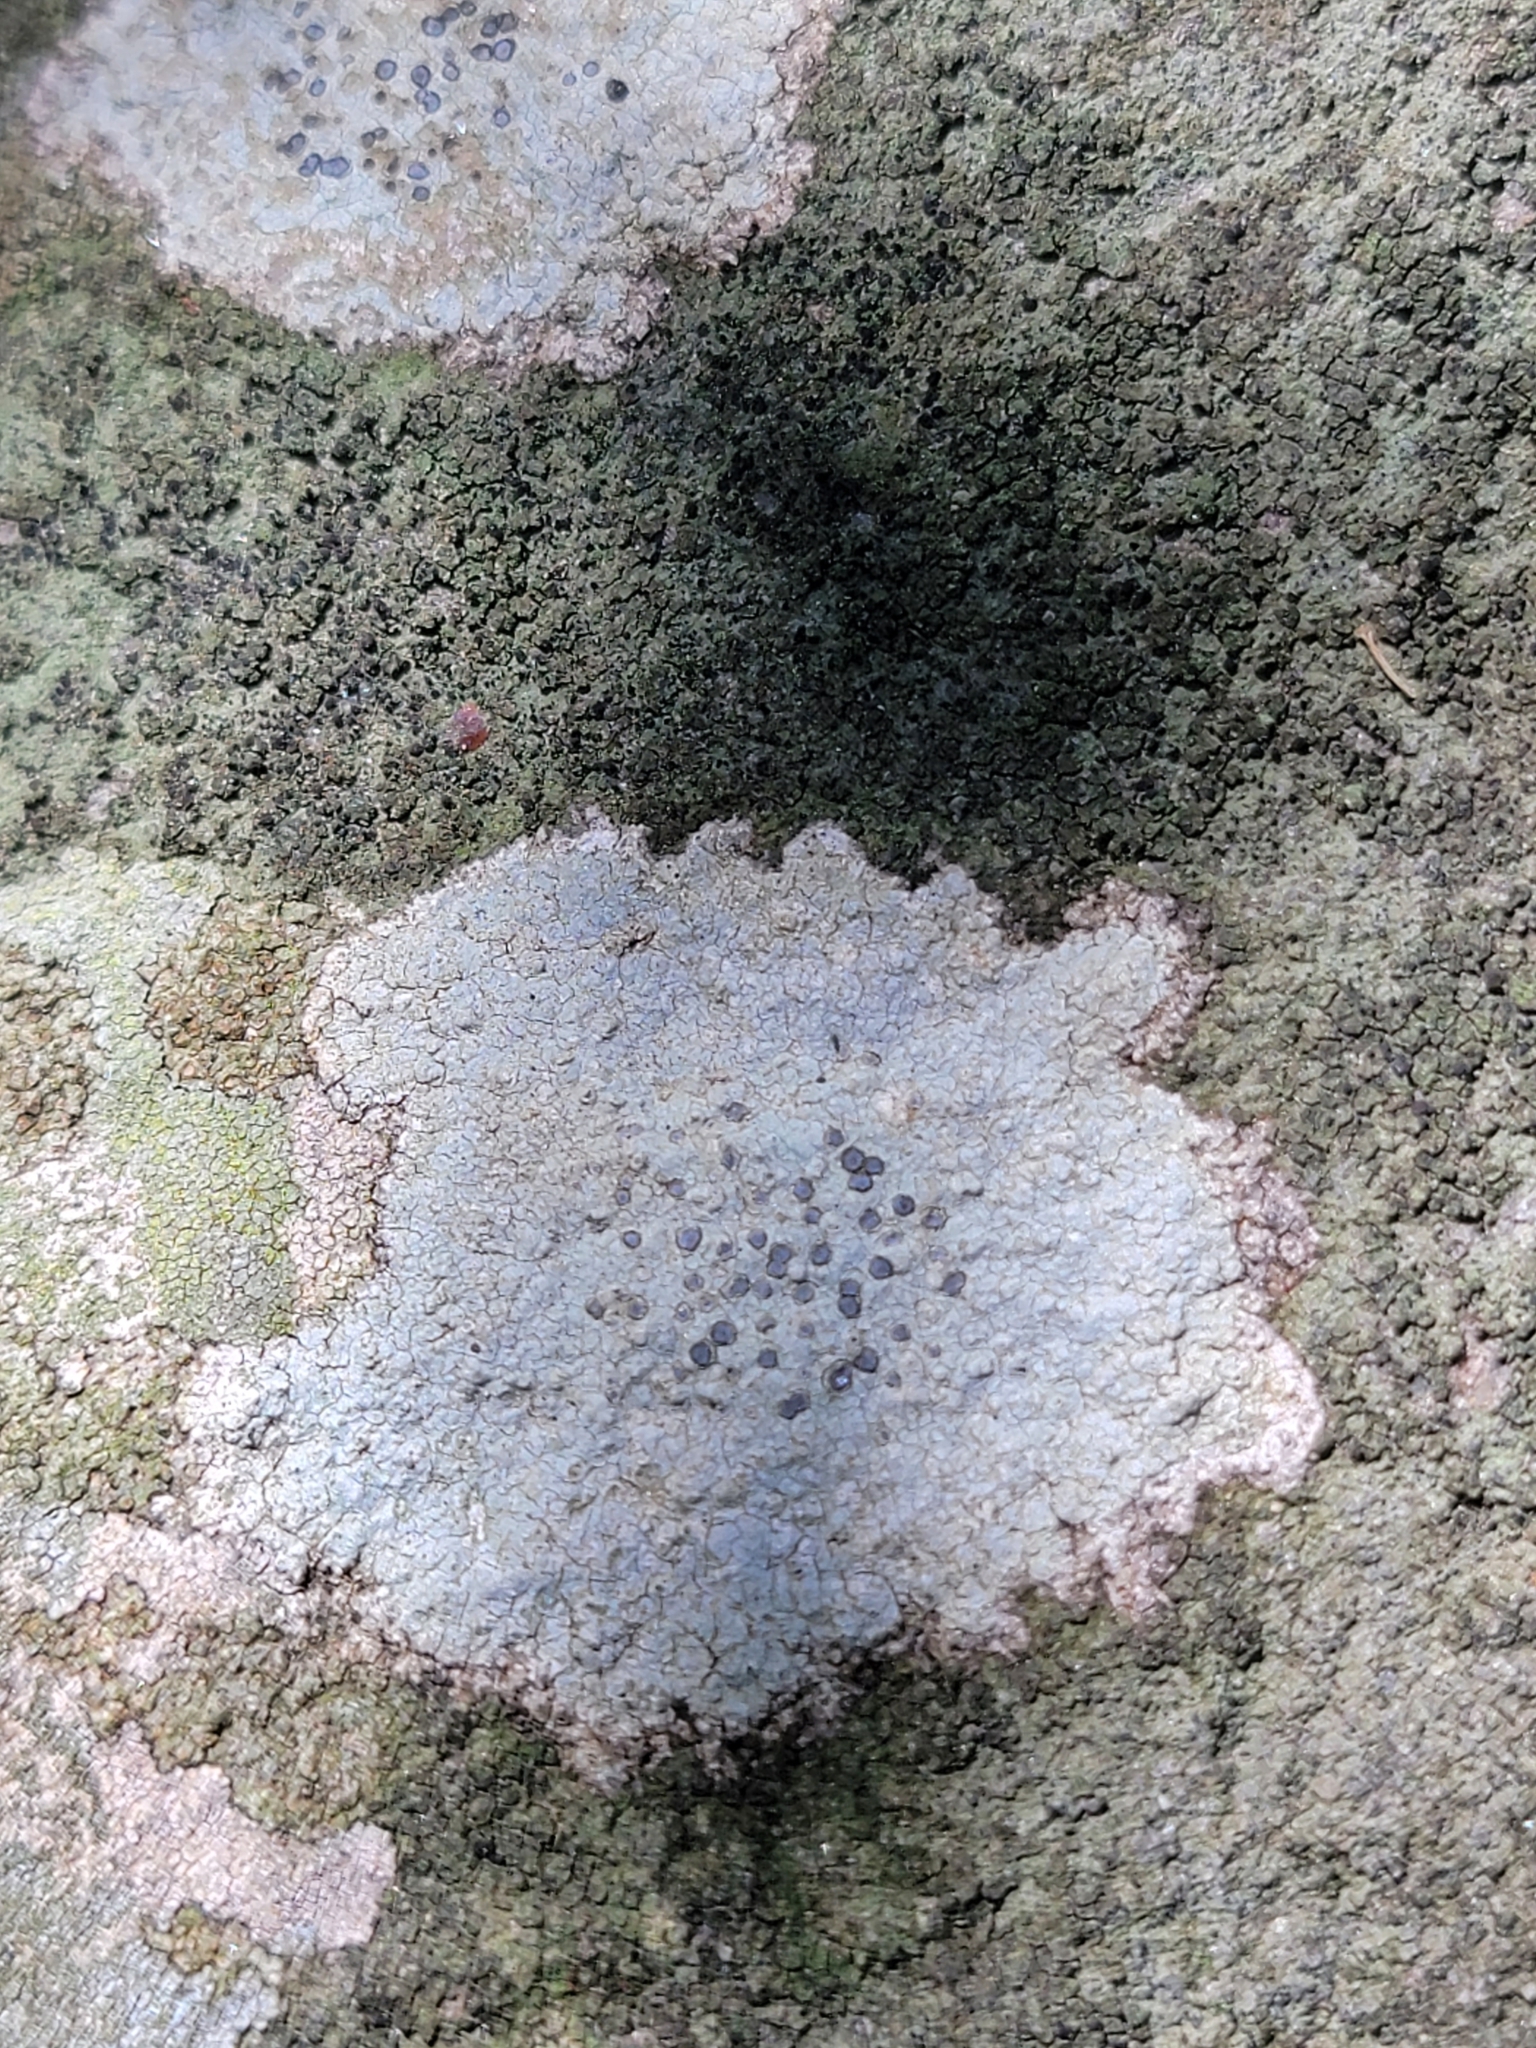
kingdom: Fungi
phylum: Ascomycota
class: Lecanoromycetes
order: Lecideales
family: Lecideaceae
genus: Porpidia
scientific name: Porpidia albocaerulescens
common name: Smokey-eyed boulder lichen
